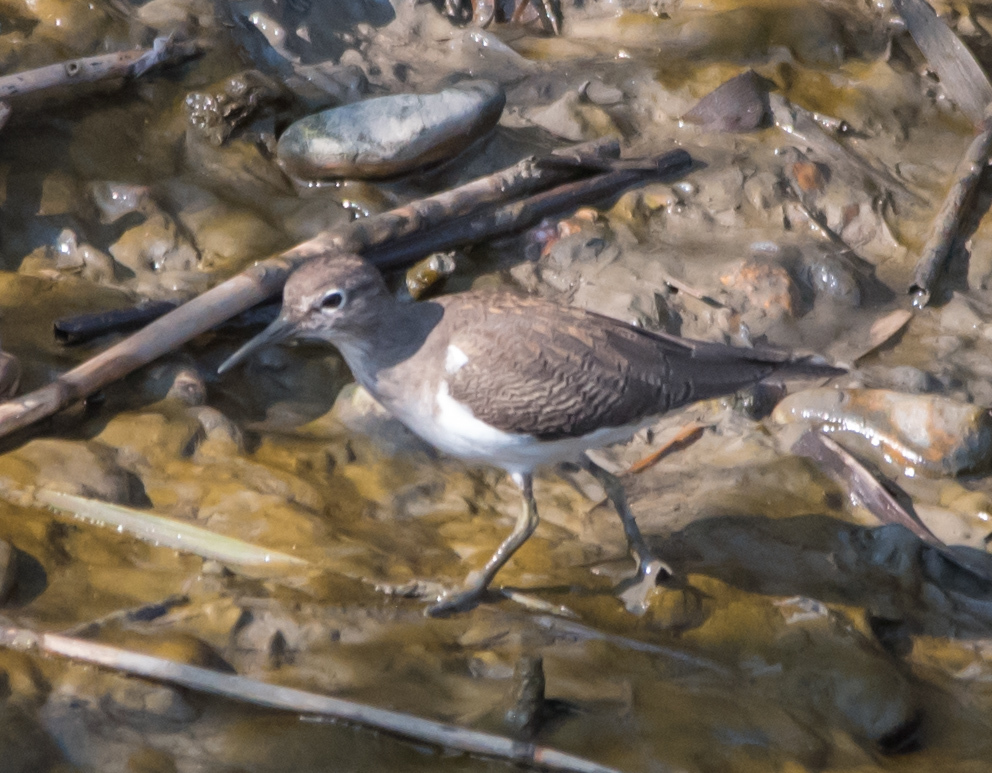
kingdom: Animalia
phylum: Chordata
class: Aves
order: Charadriiformes
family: Scolopacidae
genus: Actitis
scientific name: Actitis hypoleucos
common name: Common sandpiper
